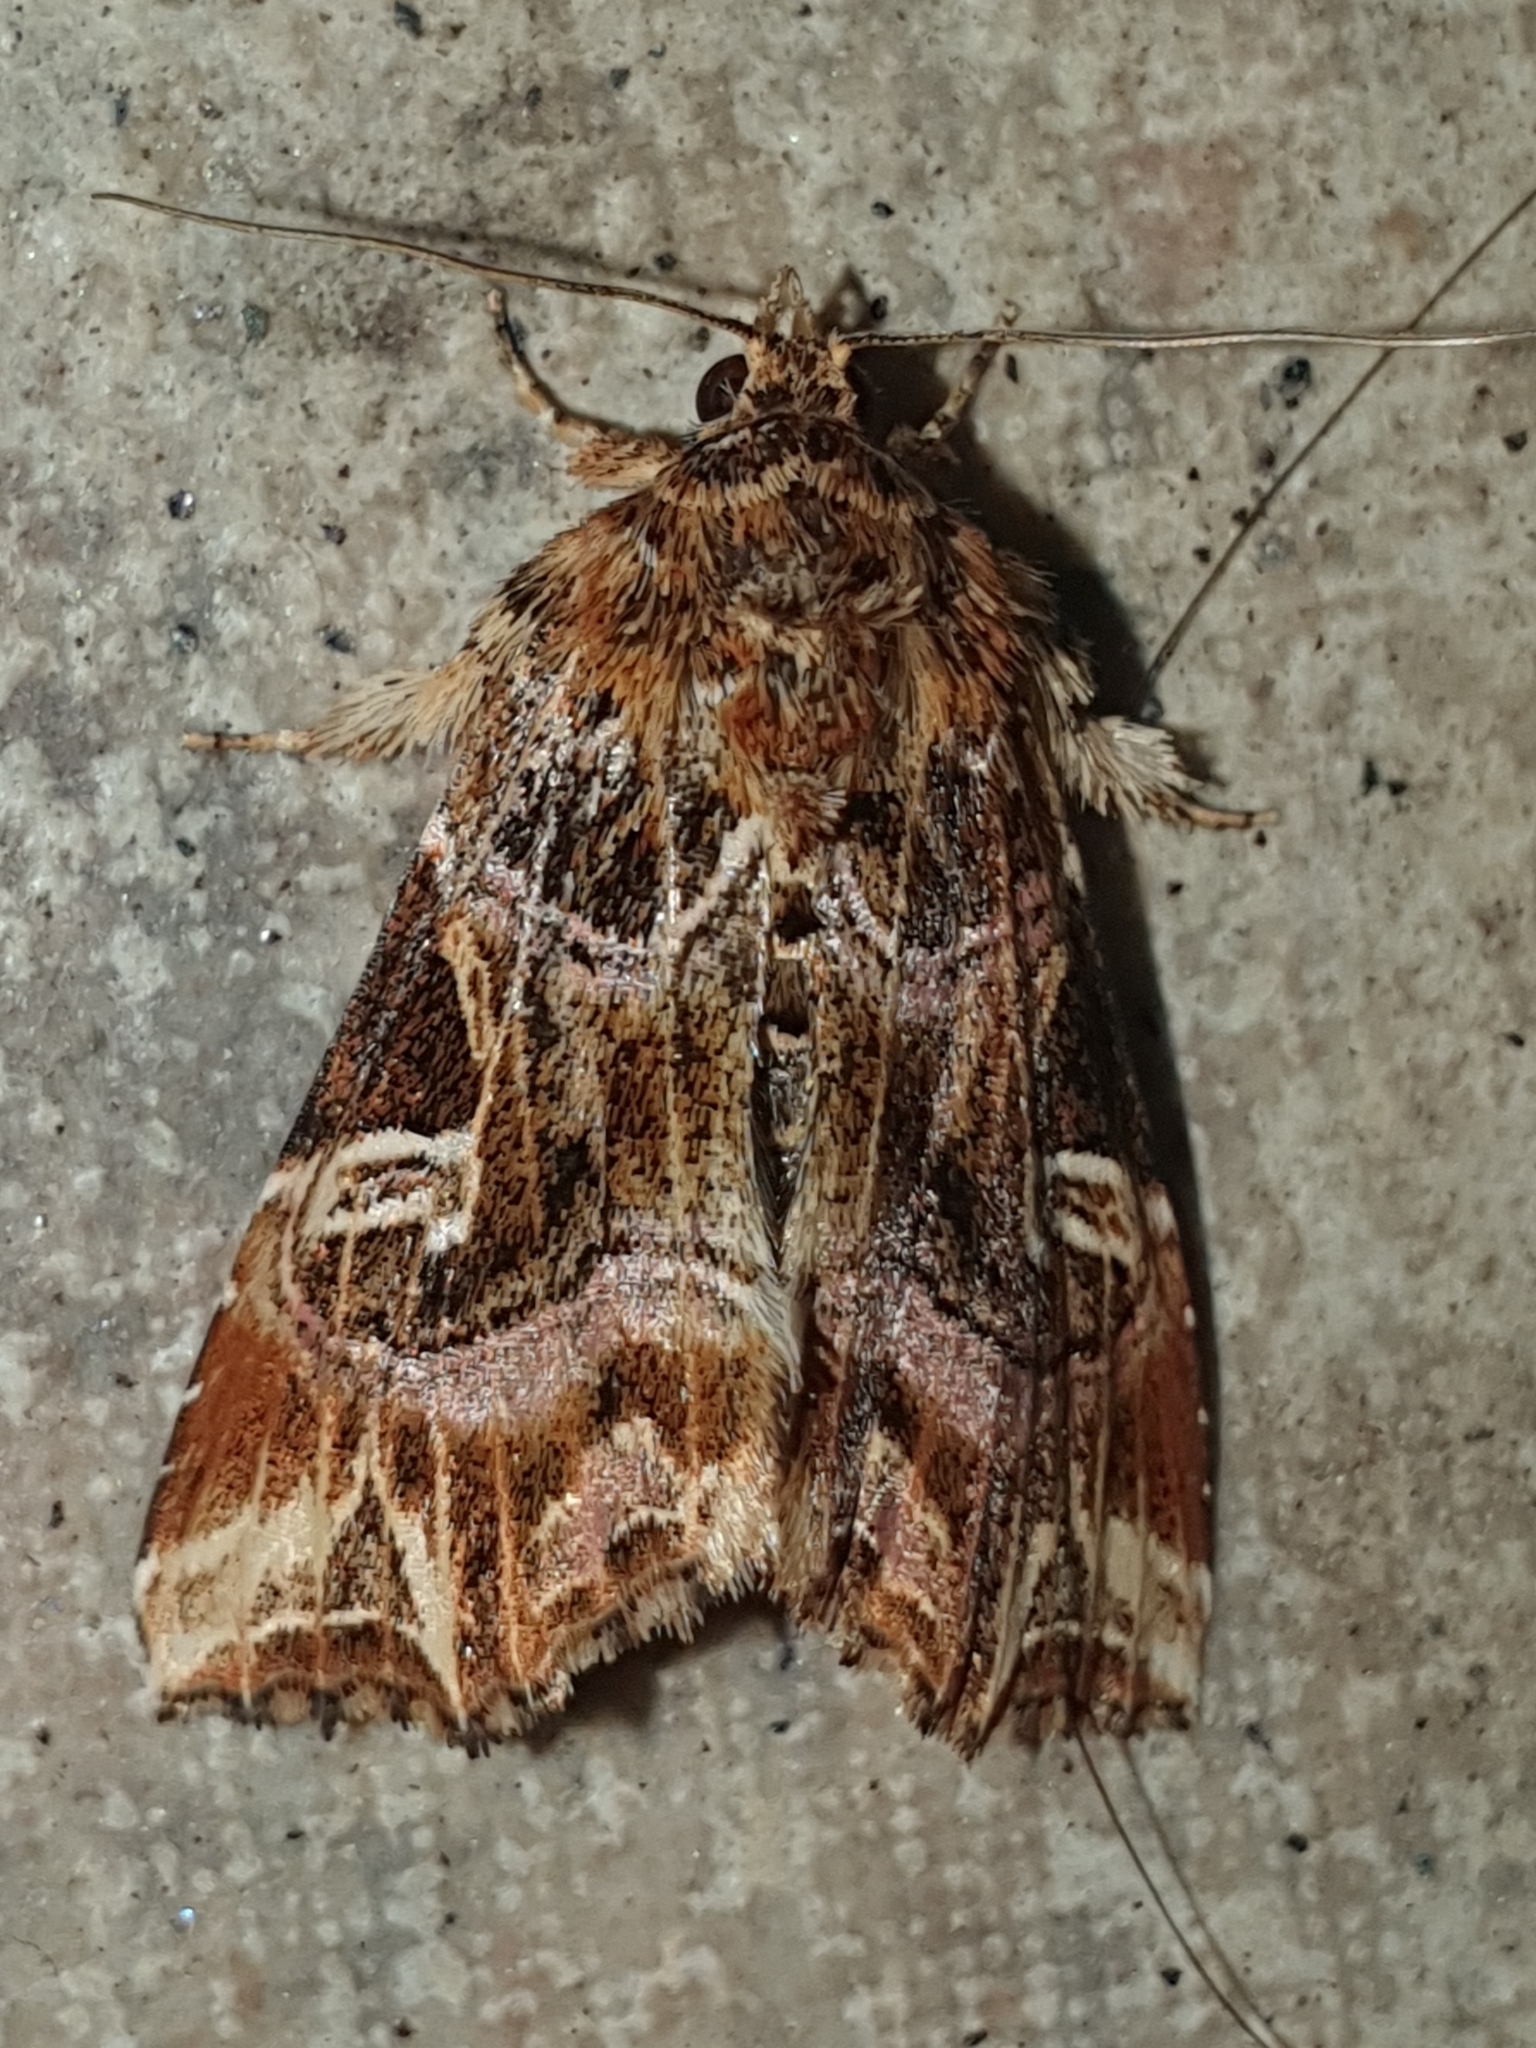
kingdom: Animalia
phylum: Arthropoda
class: Insecta
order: Lepidoptera
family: Noctuidae
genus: Callopistria
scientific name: Callopistria juventina
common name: Latin
